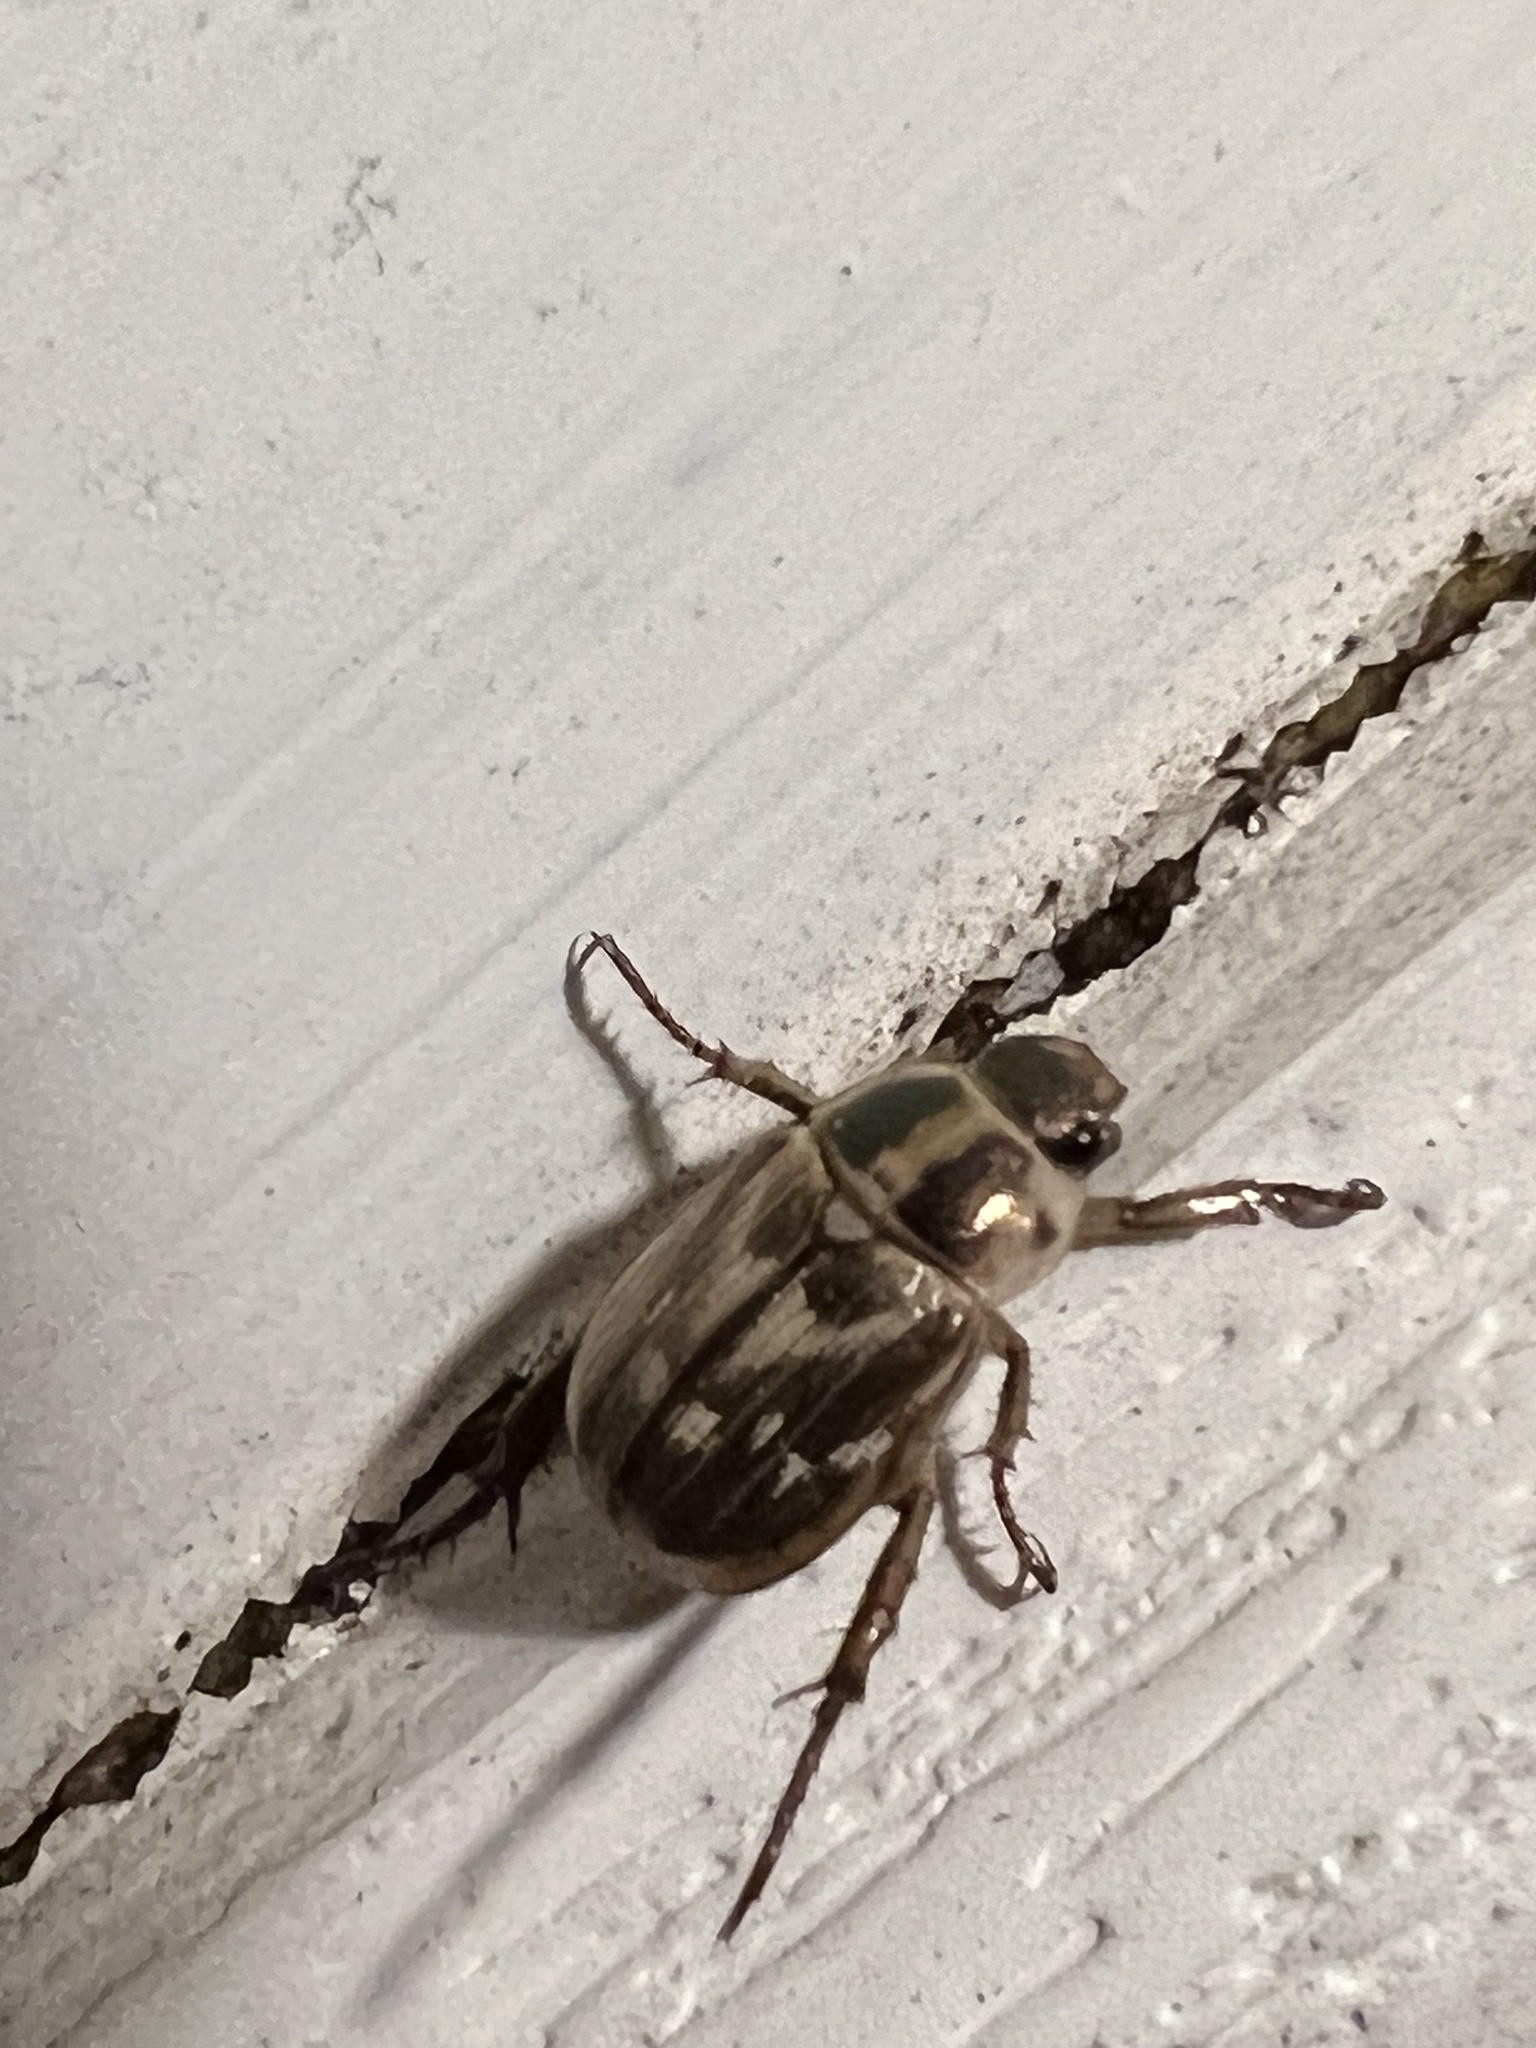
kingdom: Animalia
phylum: Arthropoda
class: Insecta
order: Coleoptera
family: Scarabaeidae
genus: Exomala
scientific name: Exomala orientalis
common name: Oriental beetle
